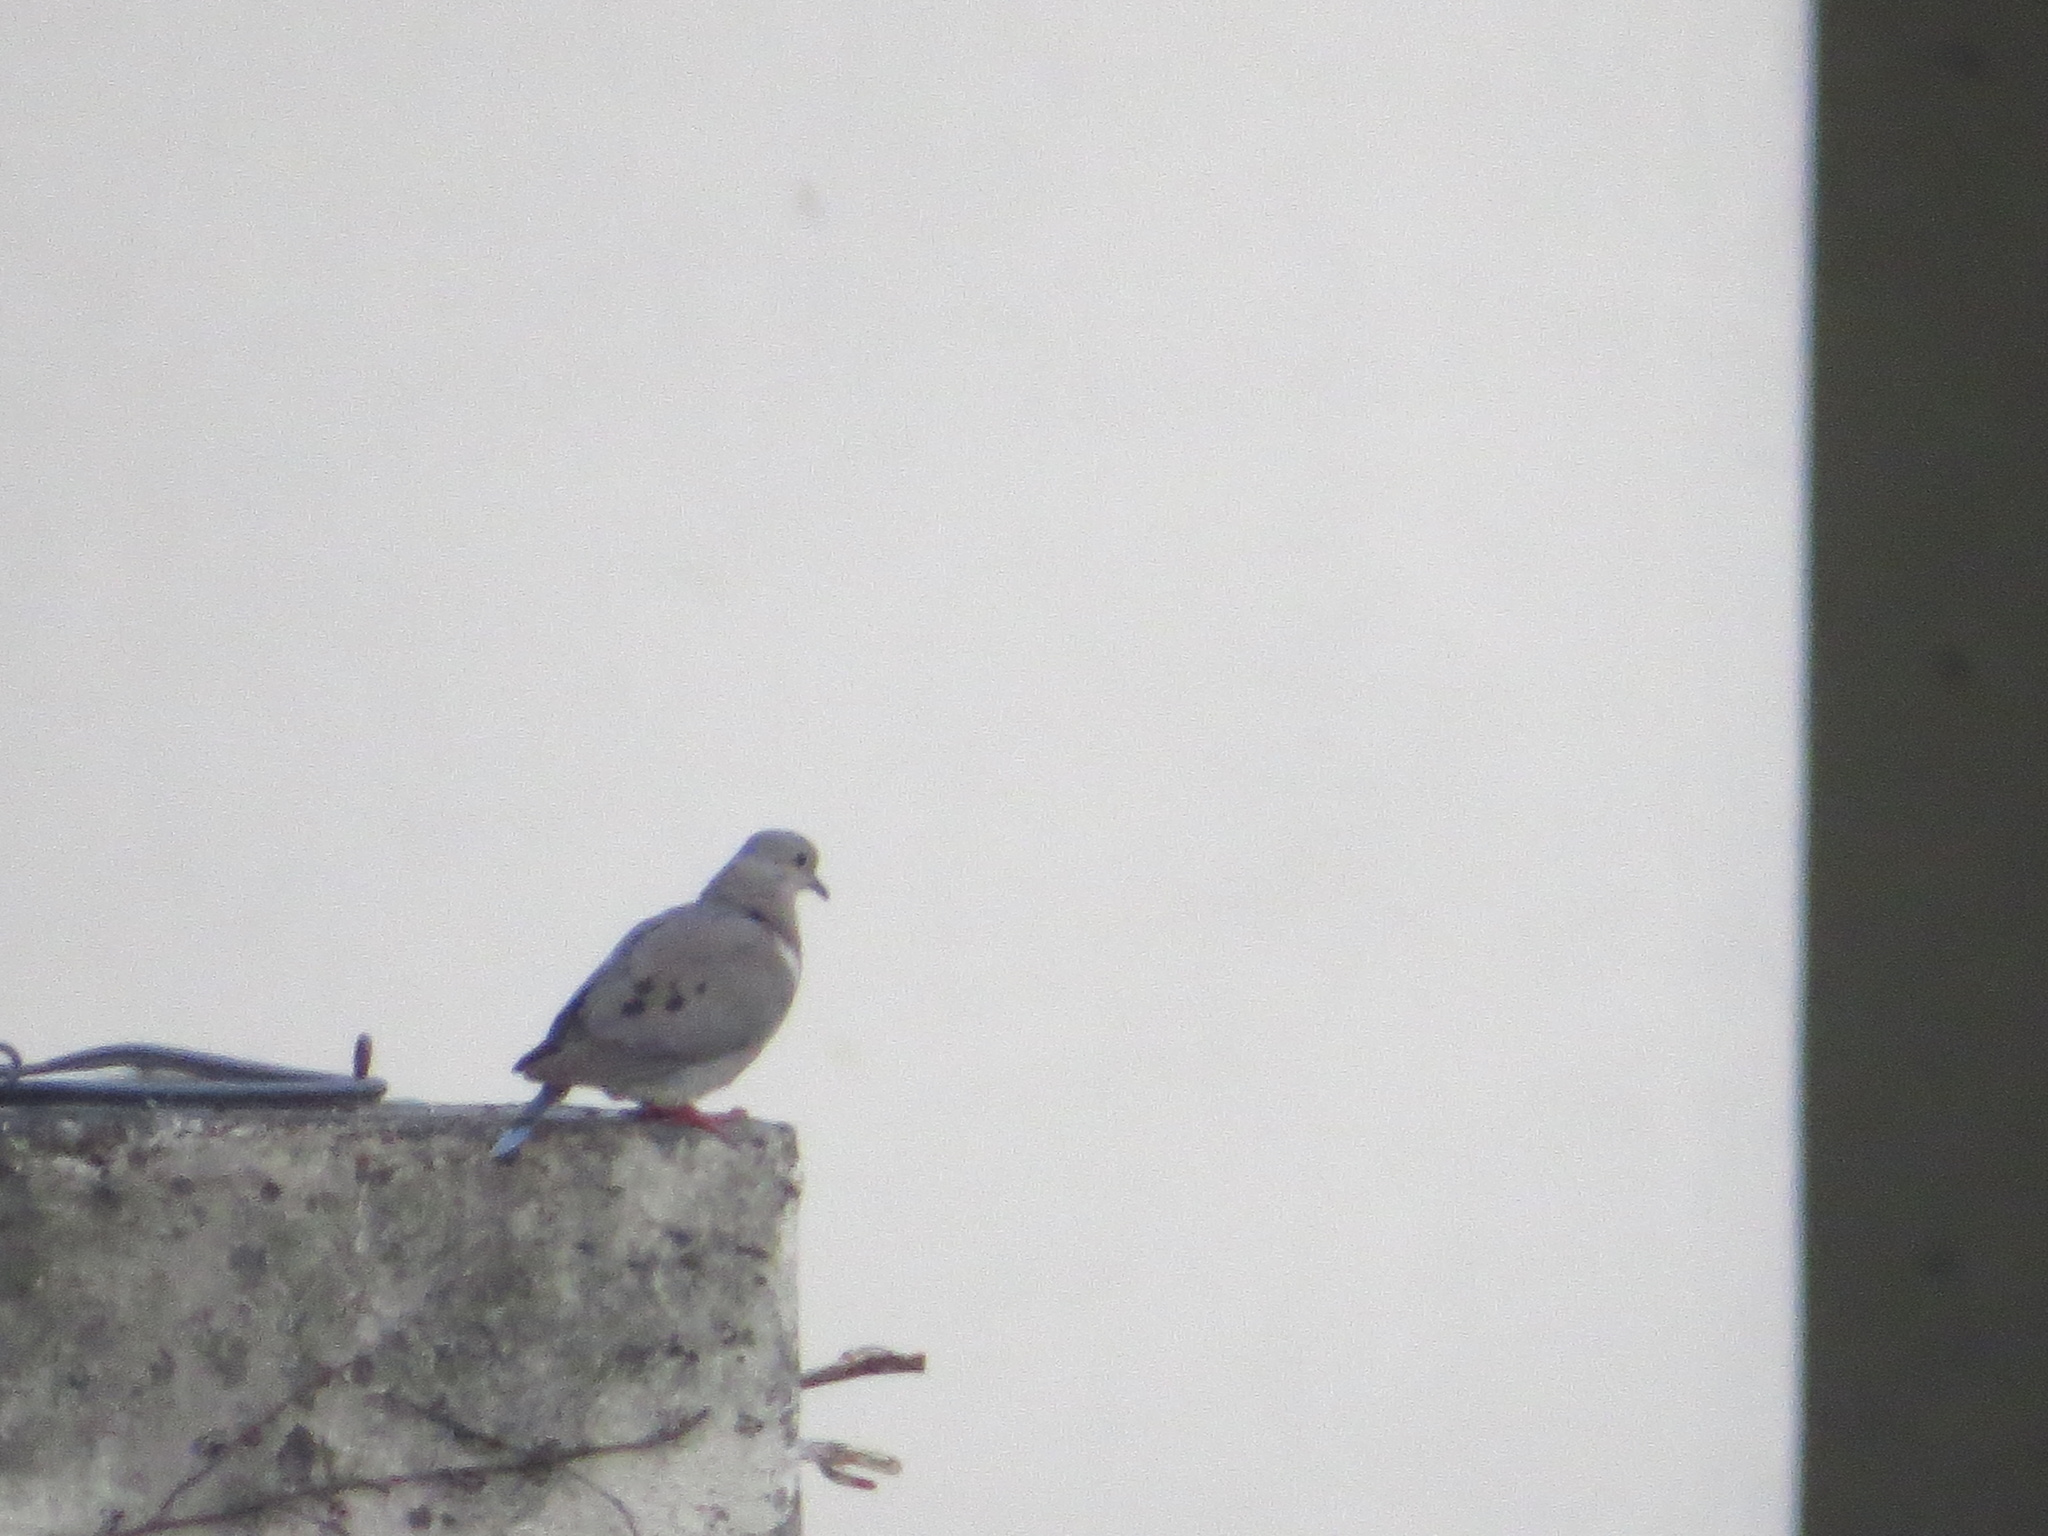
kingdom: Animalia
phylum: Chordata
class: Aves
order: Columbiformes
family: Columbidae
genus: Zenaida
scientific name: Zenaida auriculata
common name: Eared dove
